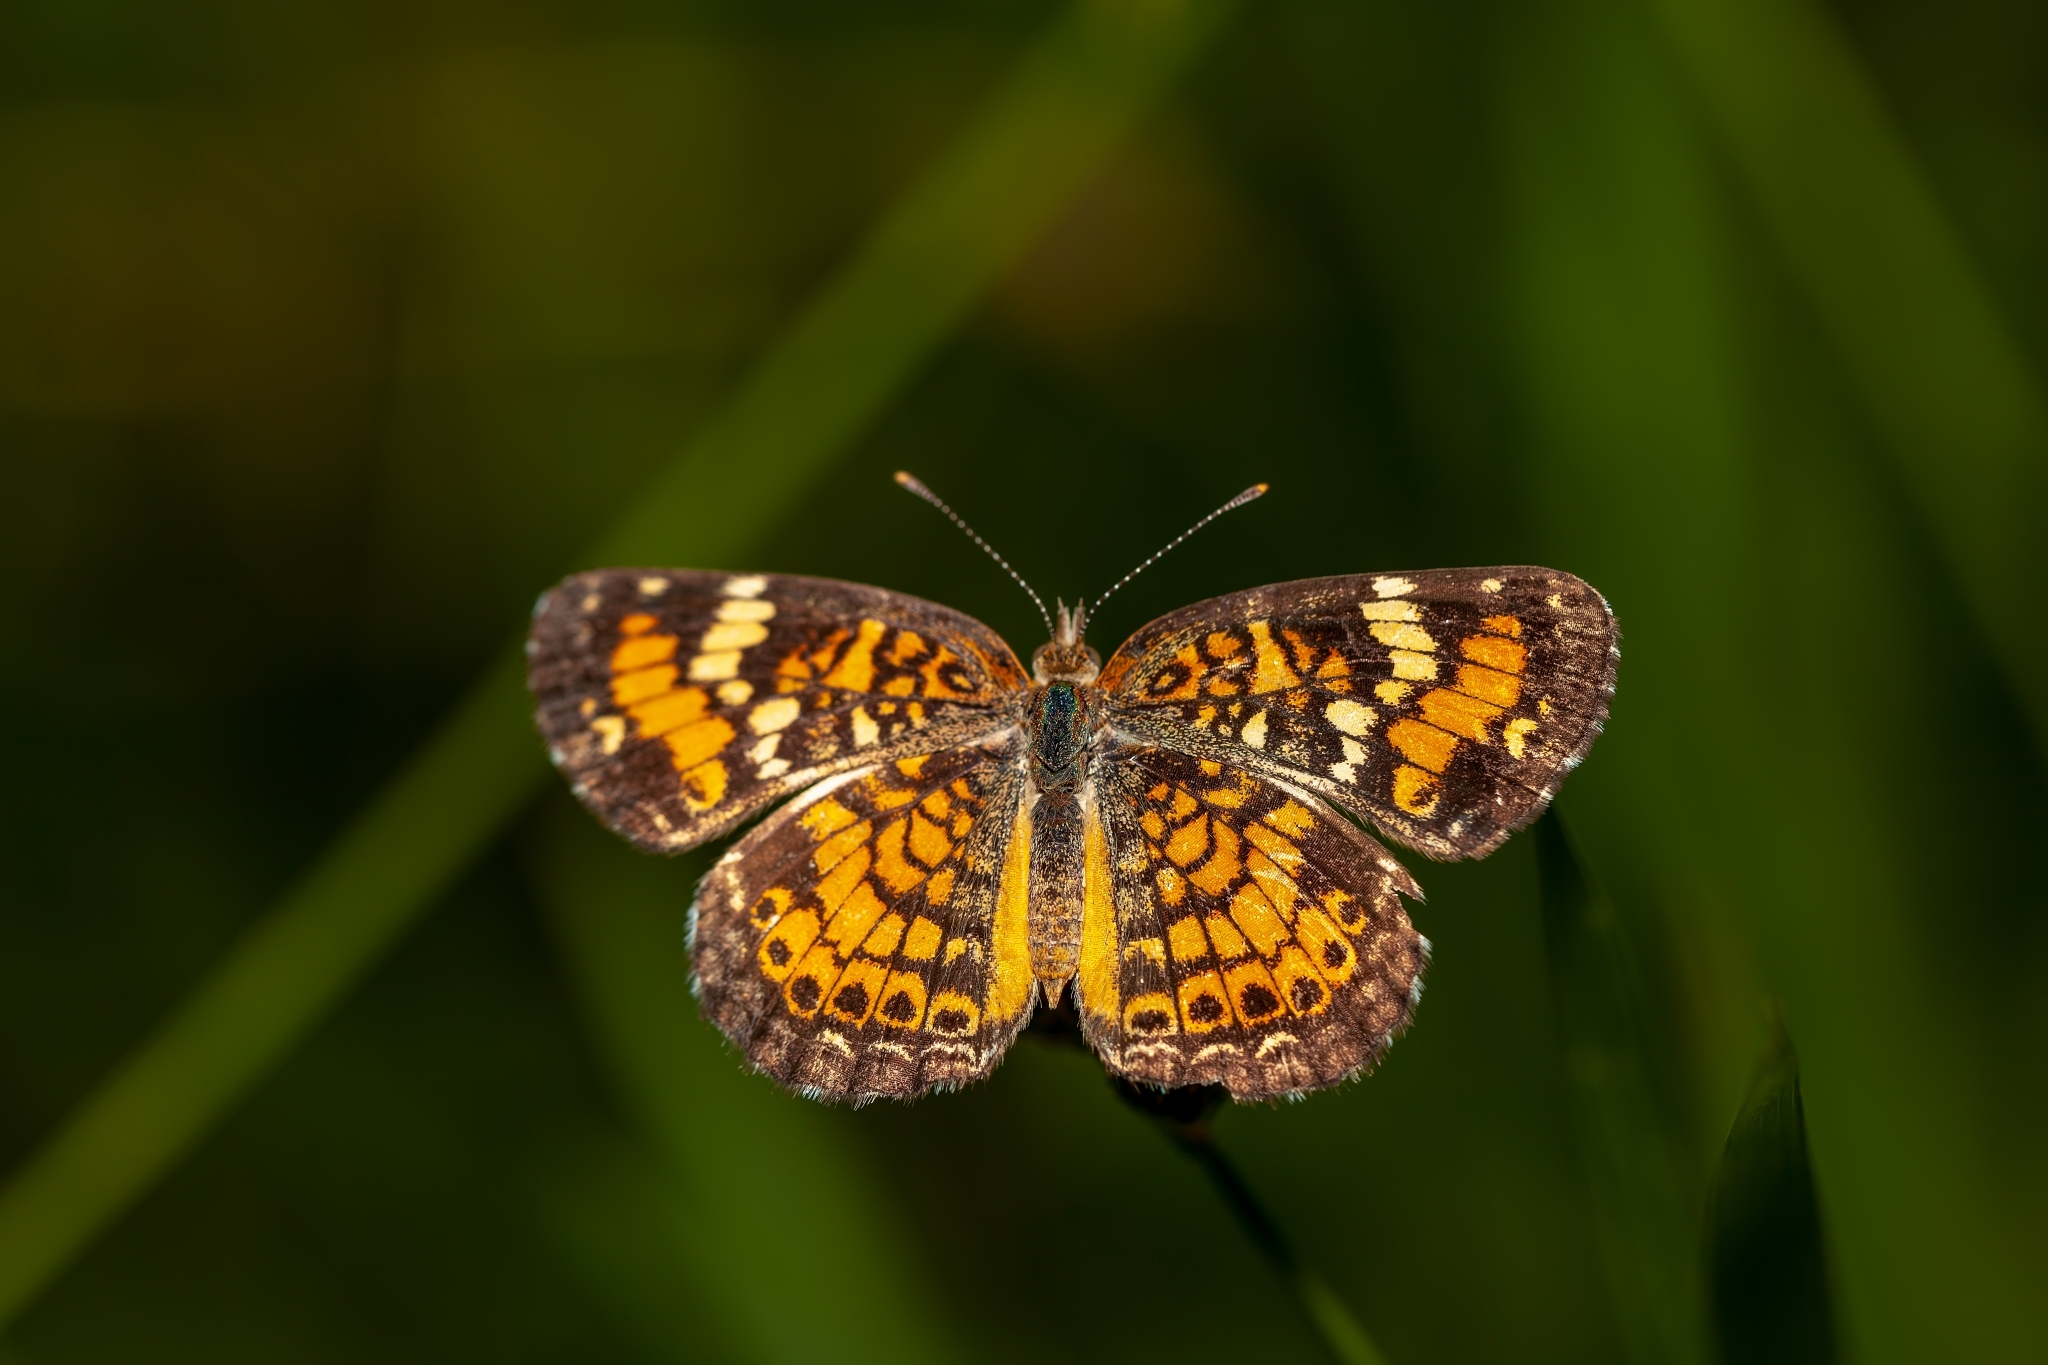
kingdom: Animalia
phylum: Arthropoda
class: Insecta
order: Lepidoptera
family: Nymphalidae
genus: Phyciodes
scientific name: Phyciodes phaon
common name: Phaon crescent
